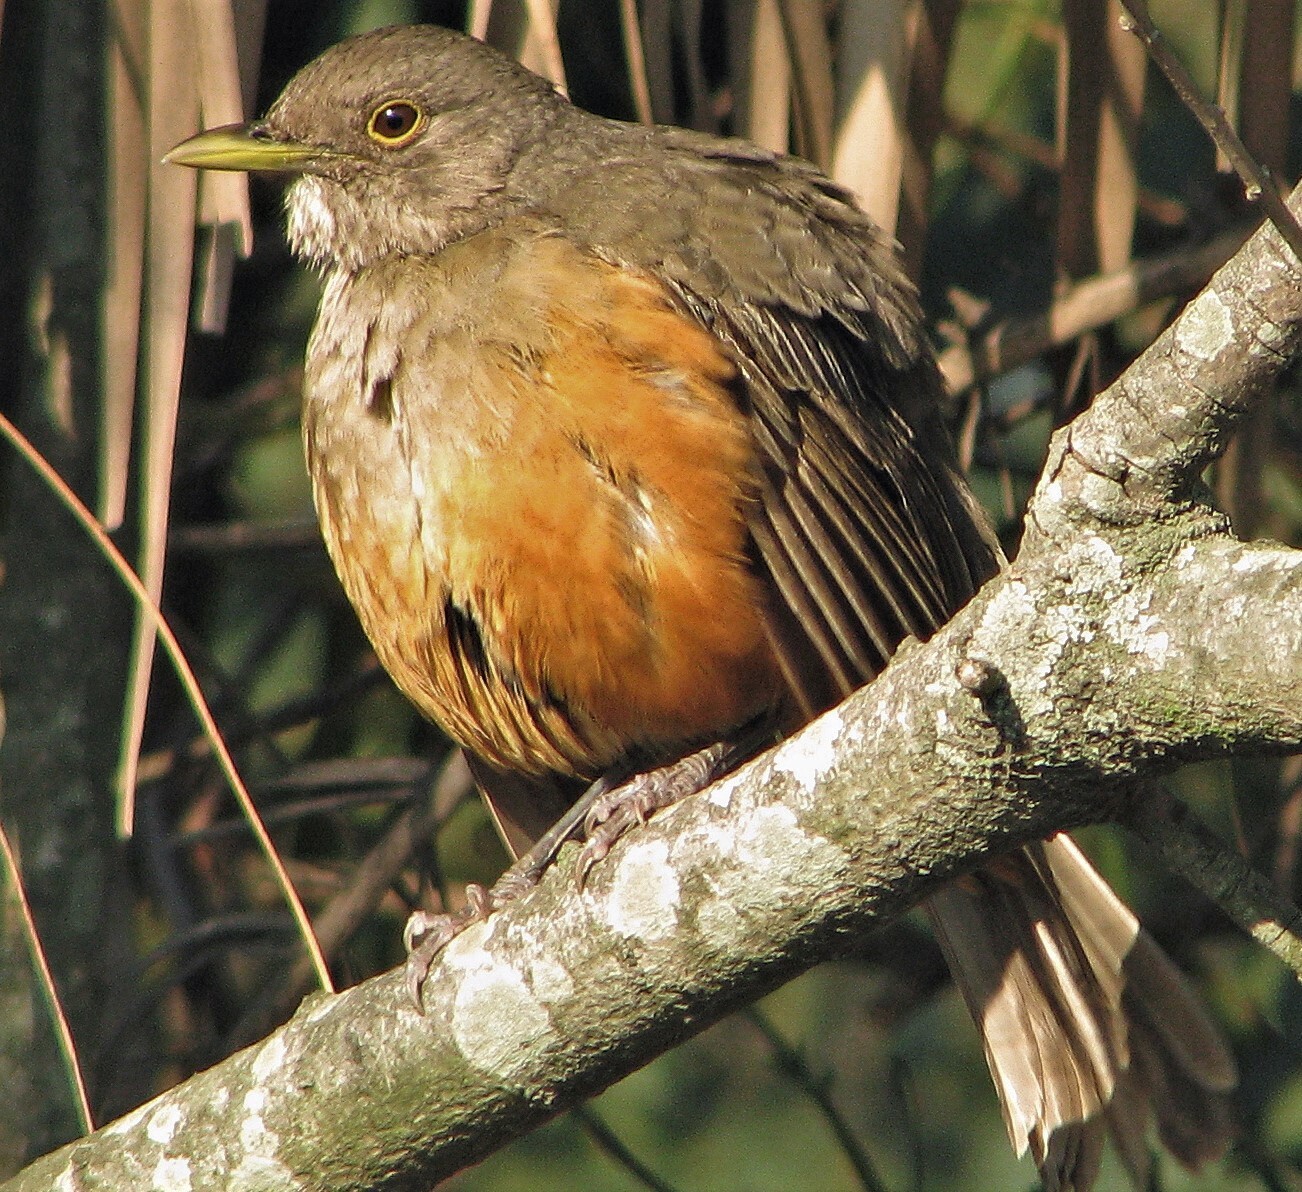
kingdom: Animalia
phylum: Chordata
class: Aves
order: Passeriformes
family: Turdidae
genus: Turdus
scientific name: Turdus rufiventris
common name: Rufous-bellied thrush
